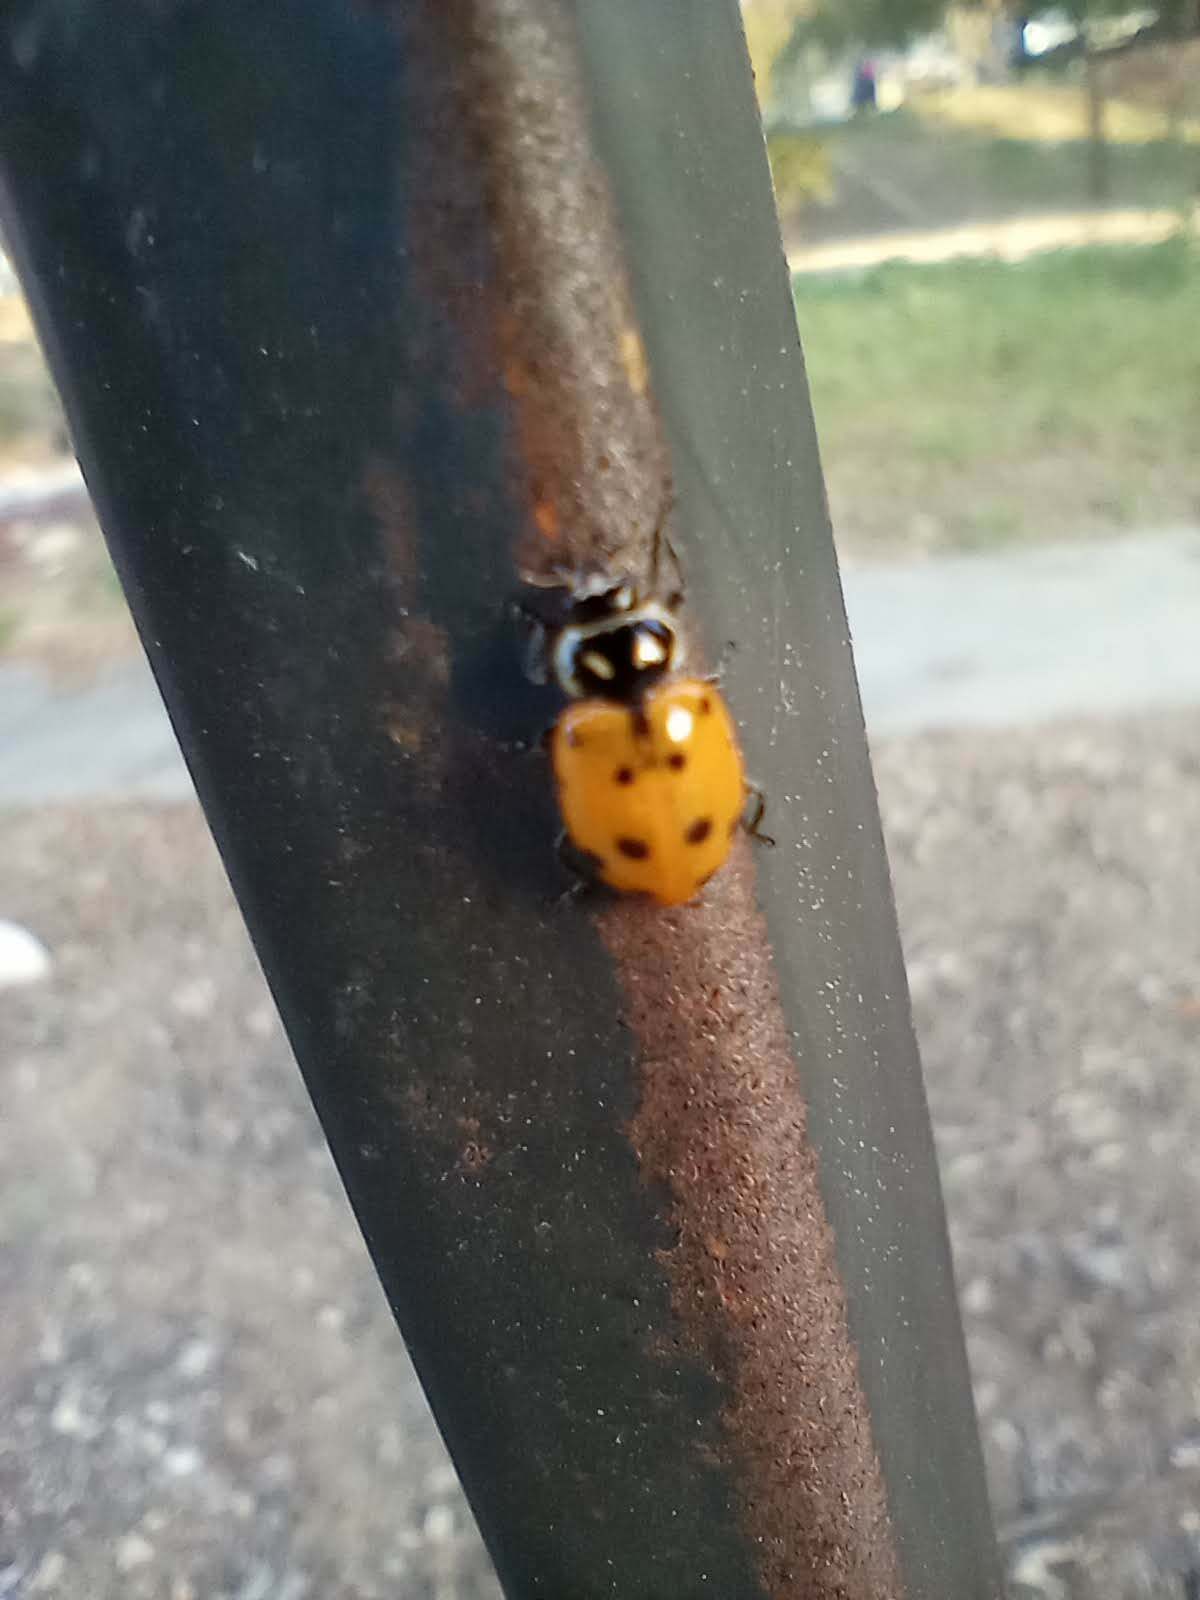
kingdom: Animalia
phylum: Arthropoda
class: Insecta
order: Coleoptera
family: Coccinellidae
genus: Hippodamia
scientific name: Hippodamia convergens
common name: Convergent lady beetle
